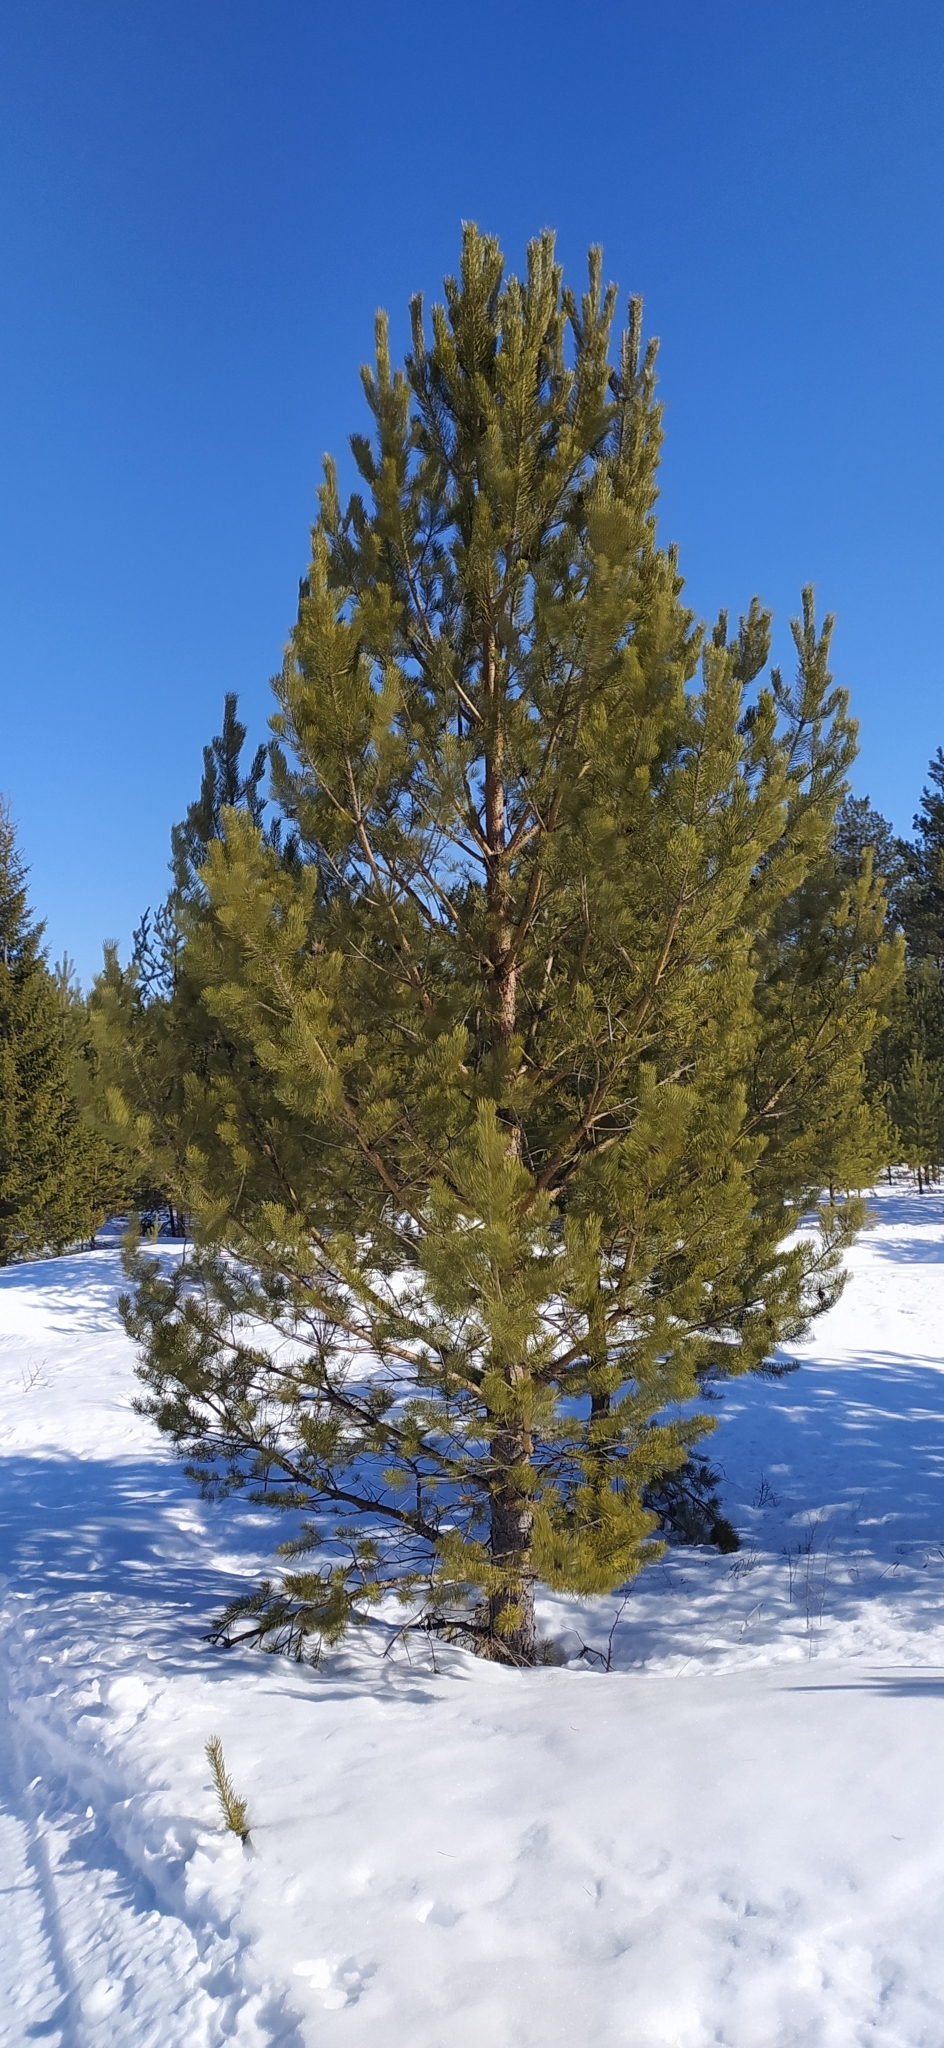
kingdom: Plantae
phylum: Tracheophyta
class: Pinopsida
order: Pinales
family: Pinaceae
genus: Pinus
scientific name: Pinus sylvestris
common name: Scots pine
